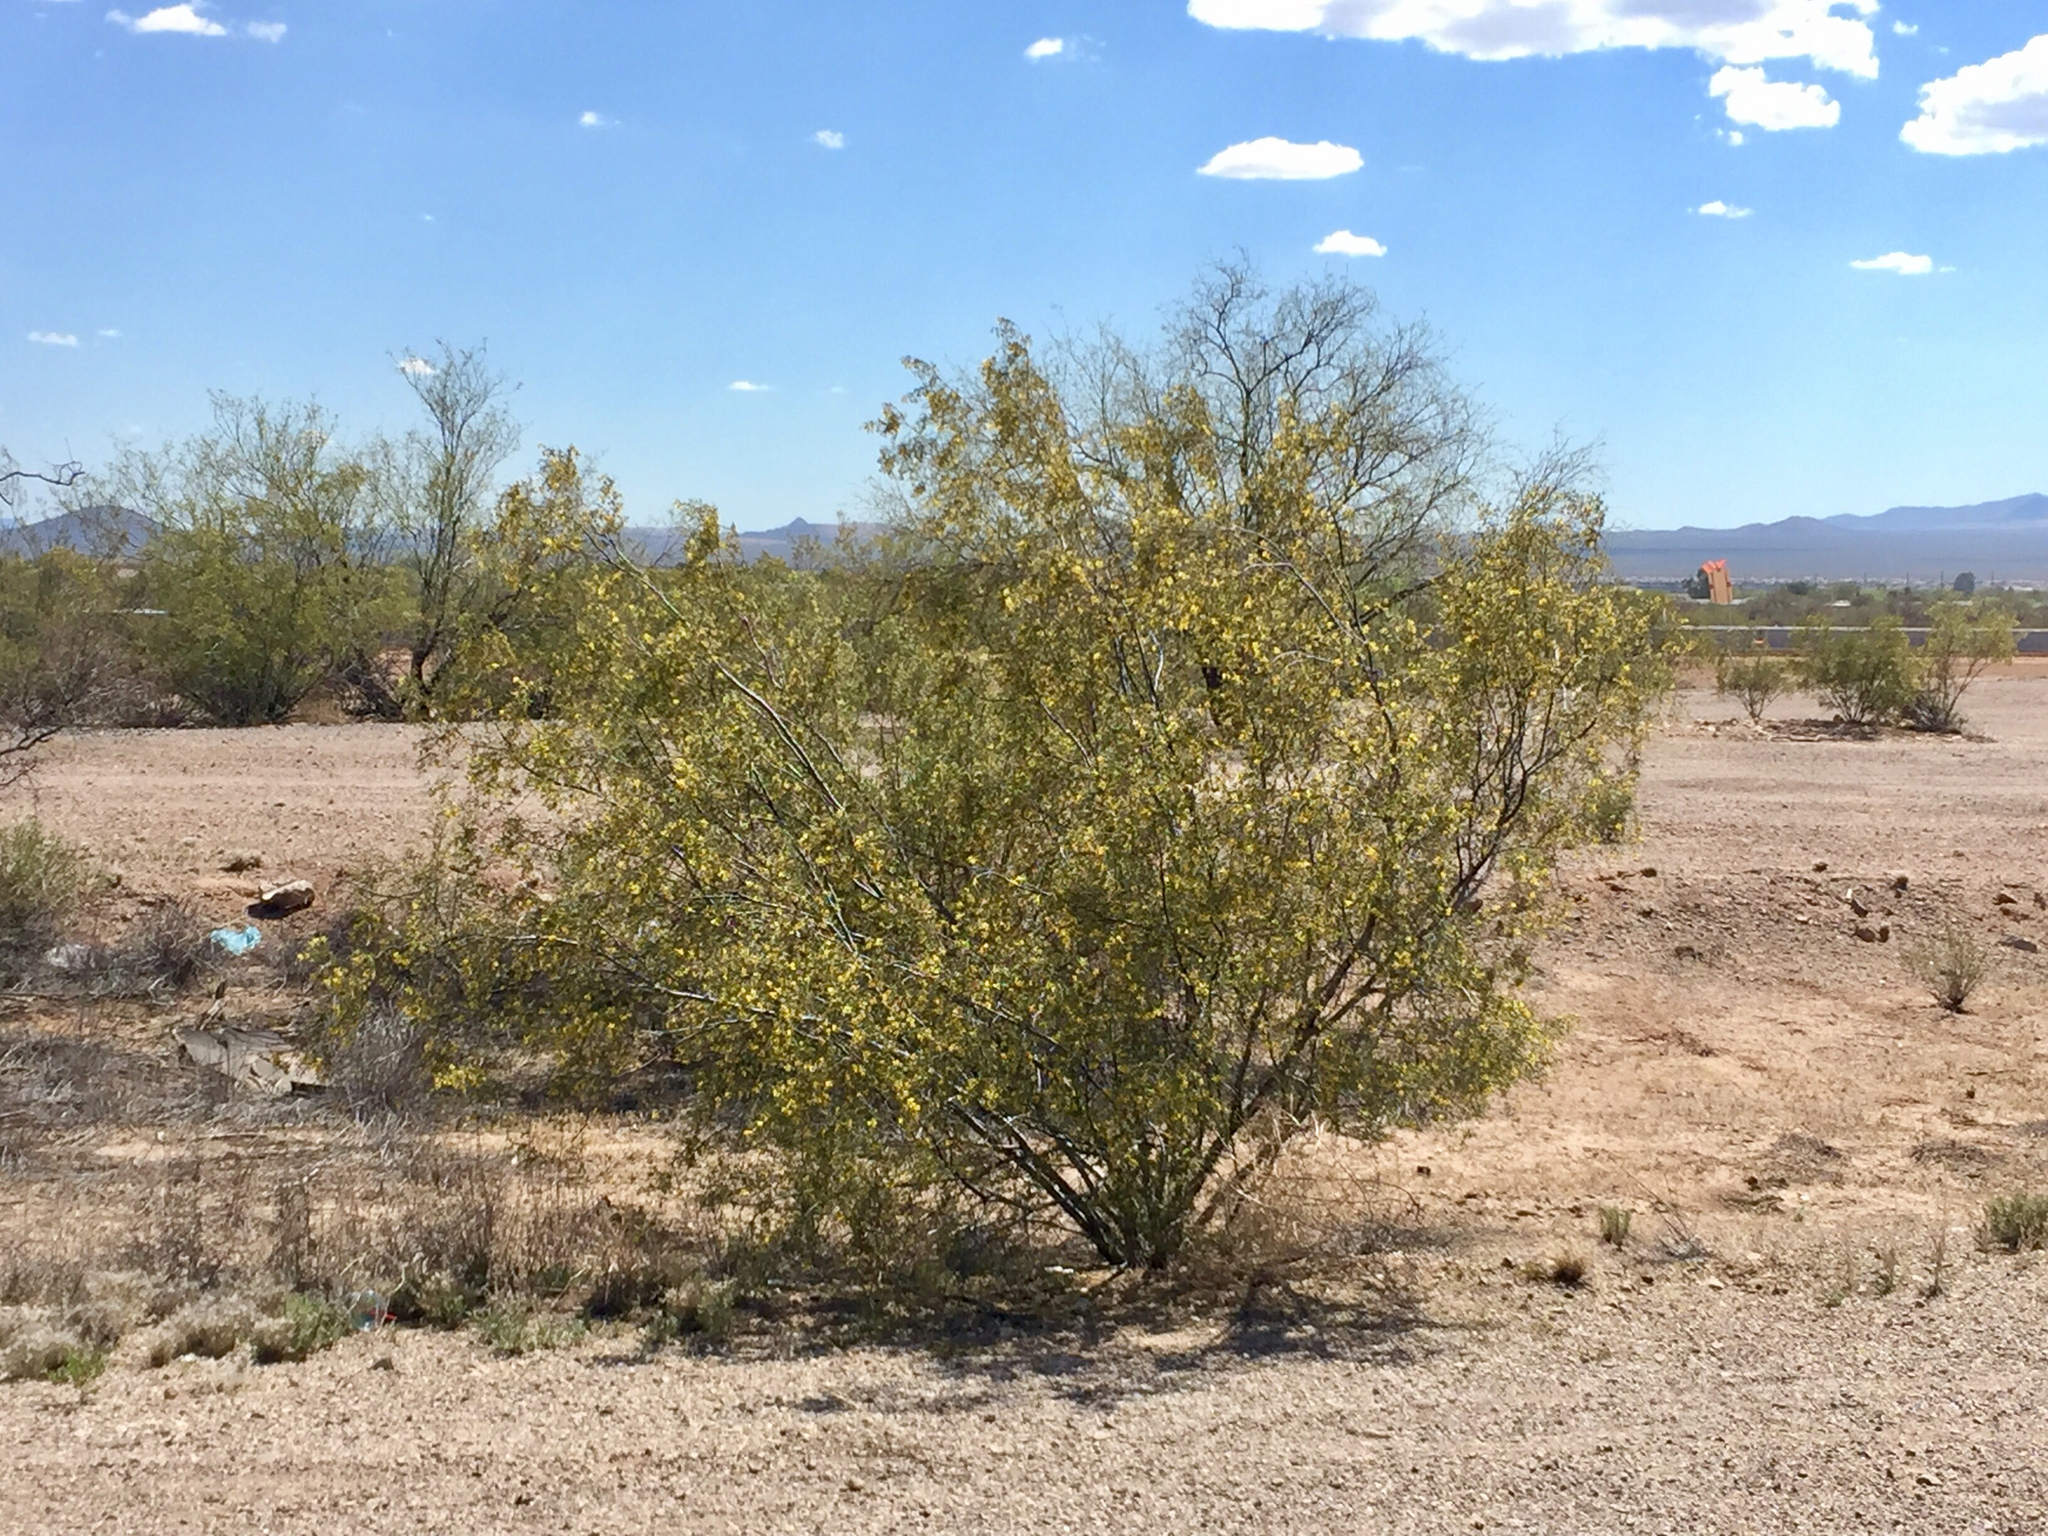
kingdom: Plantae
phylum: Tracheophyta
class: Magnoliopsida
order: Zygophyllales
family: Zygophyllaceae
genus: Larrea
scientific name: Larrea tridentata
